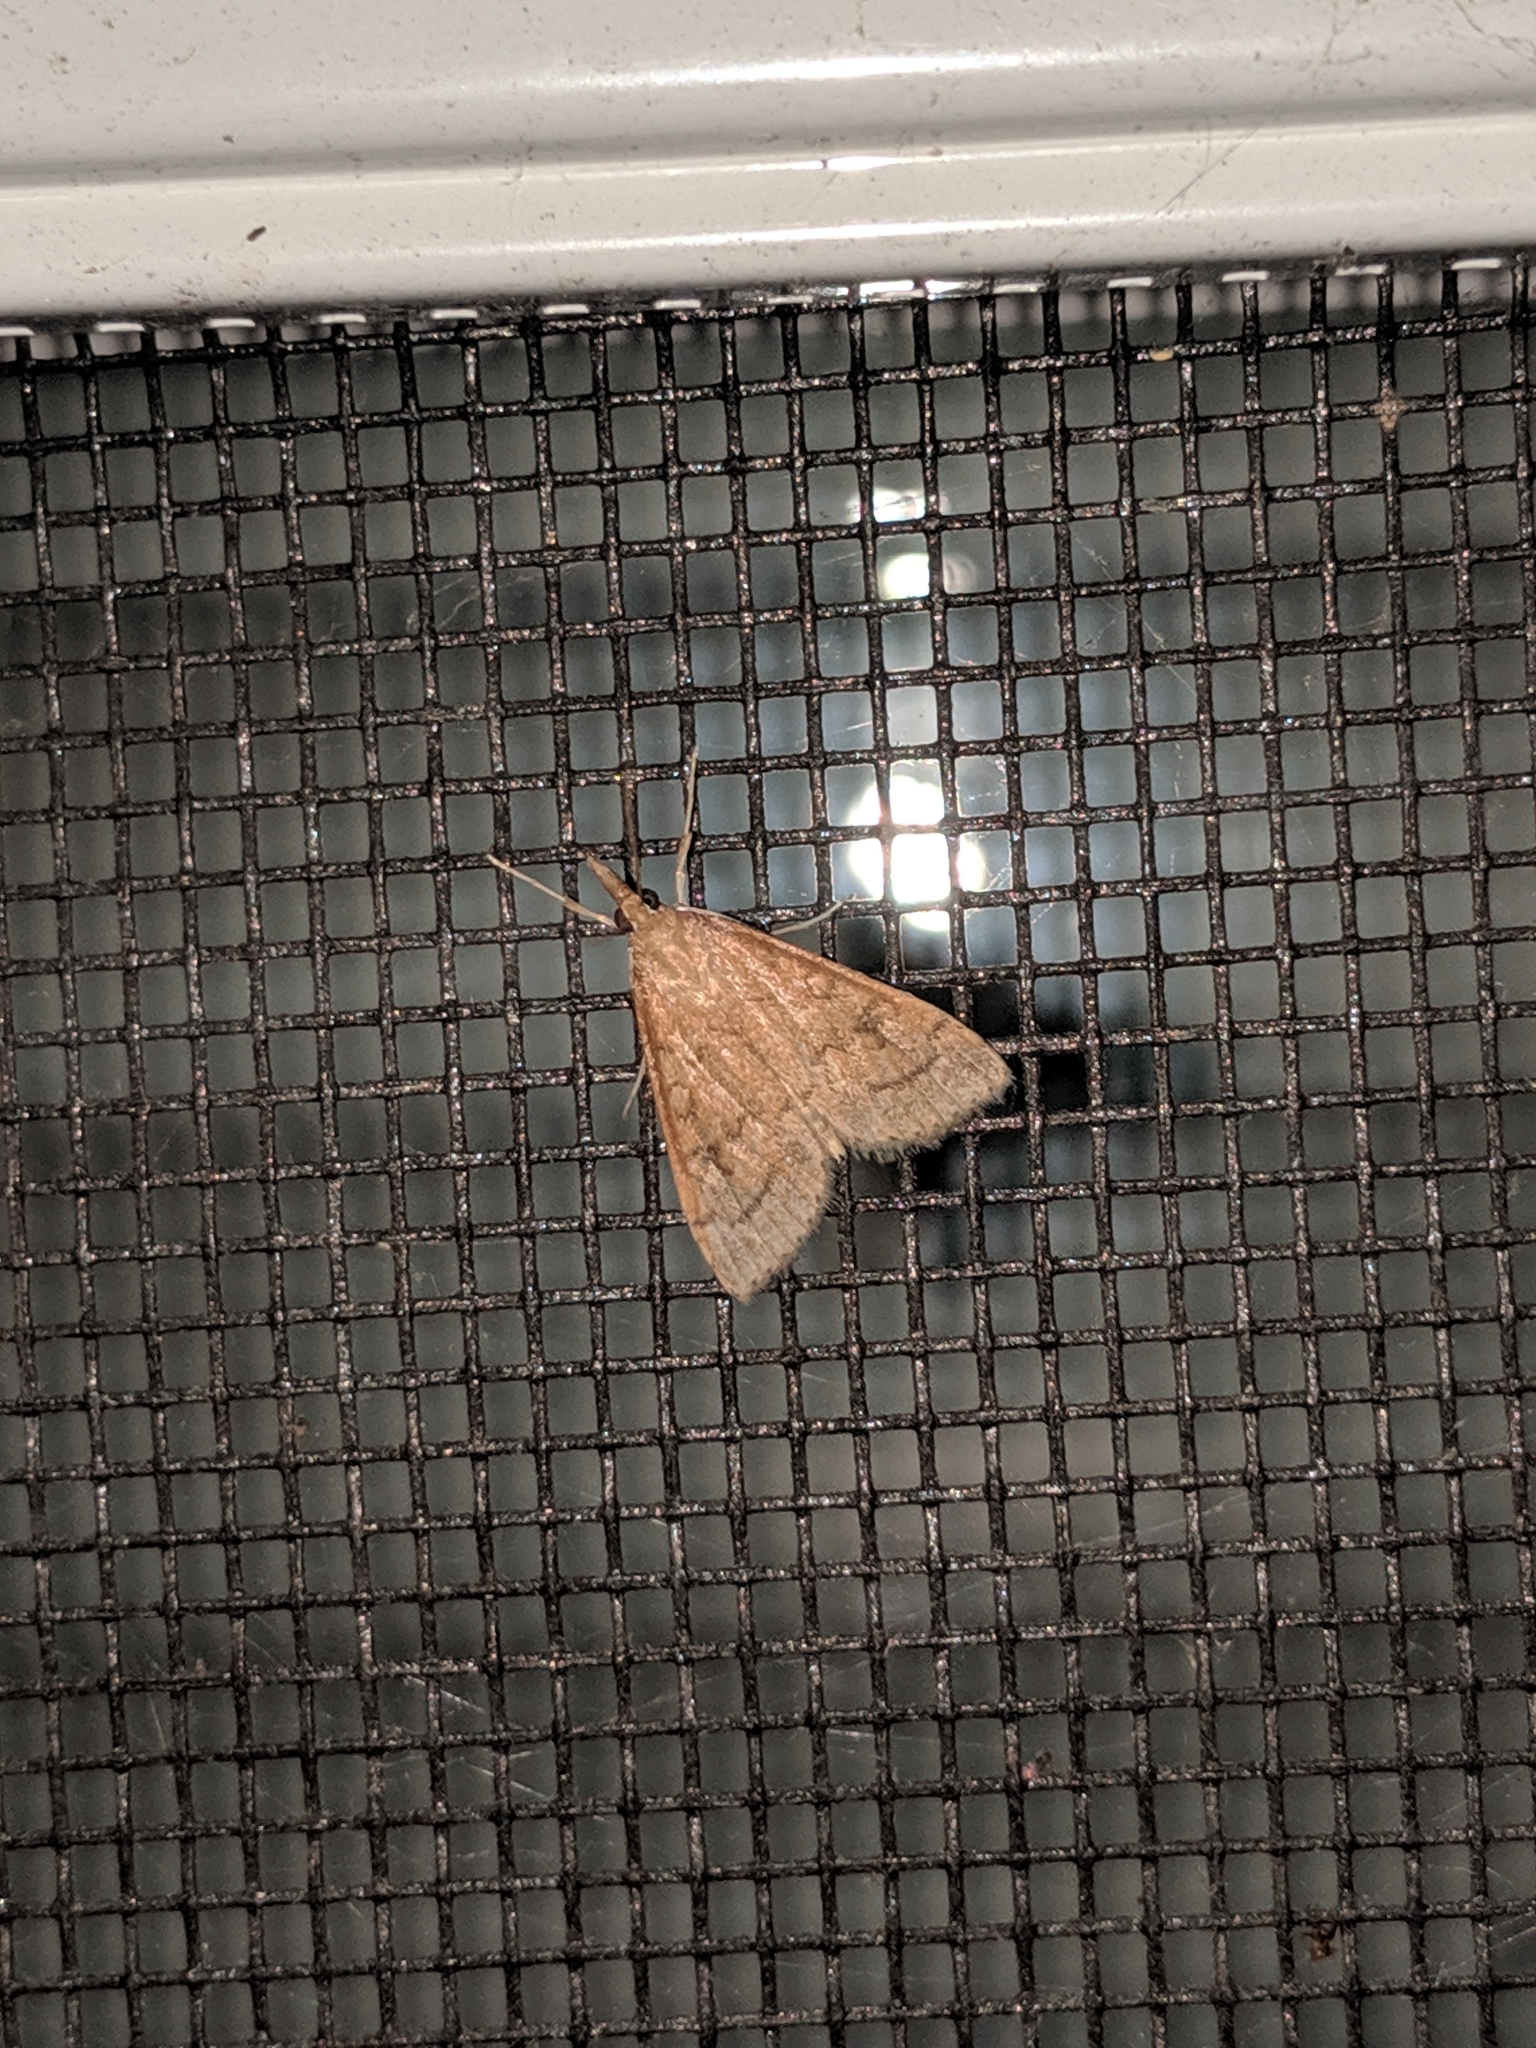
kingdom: Animalia
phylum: Arthropoda
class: Insecta
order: Lepidoptera
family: Crambidae
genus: Udea
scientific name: Udea rubigalis
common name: Celery leaftier moth
